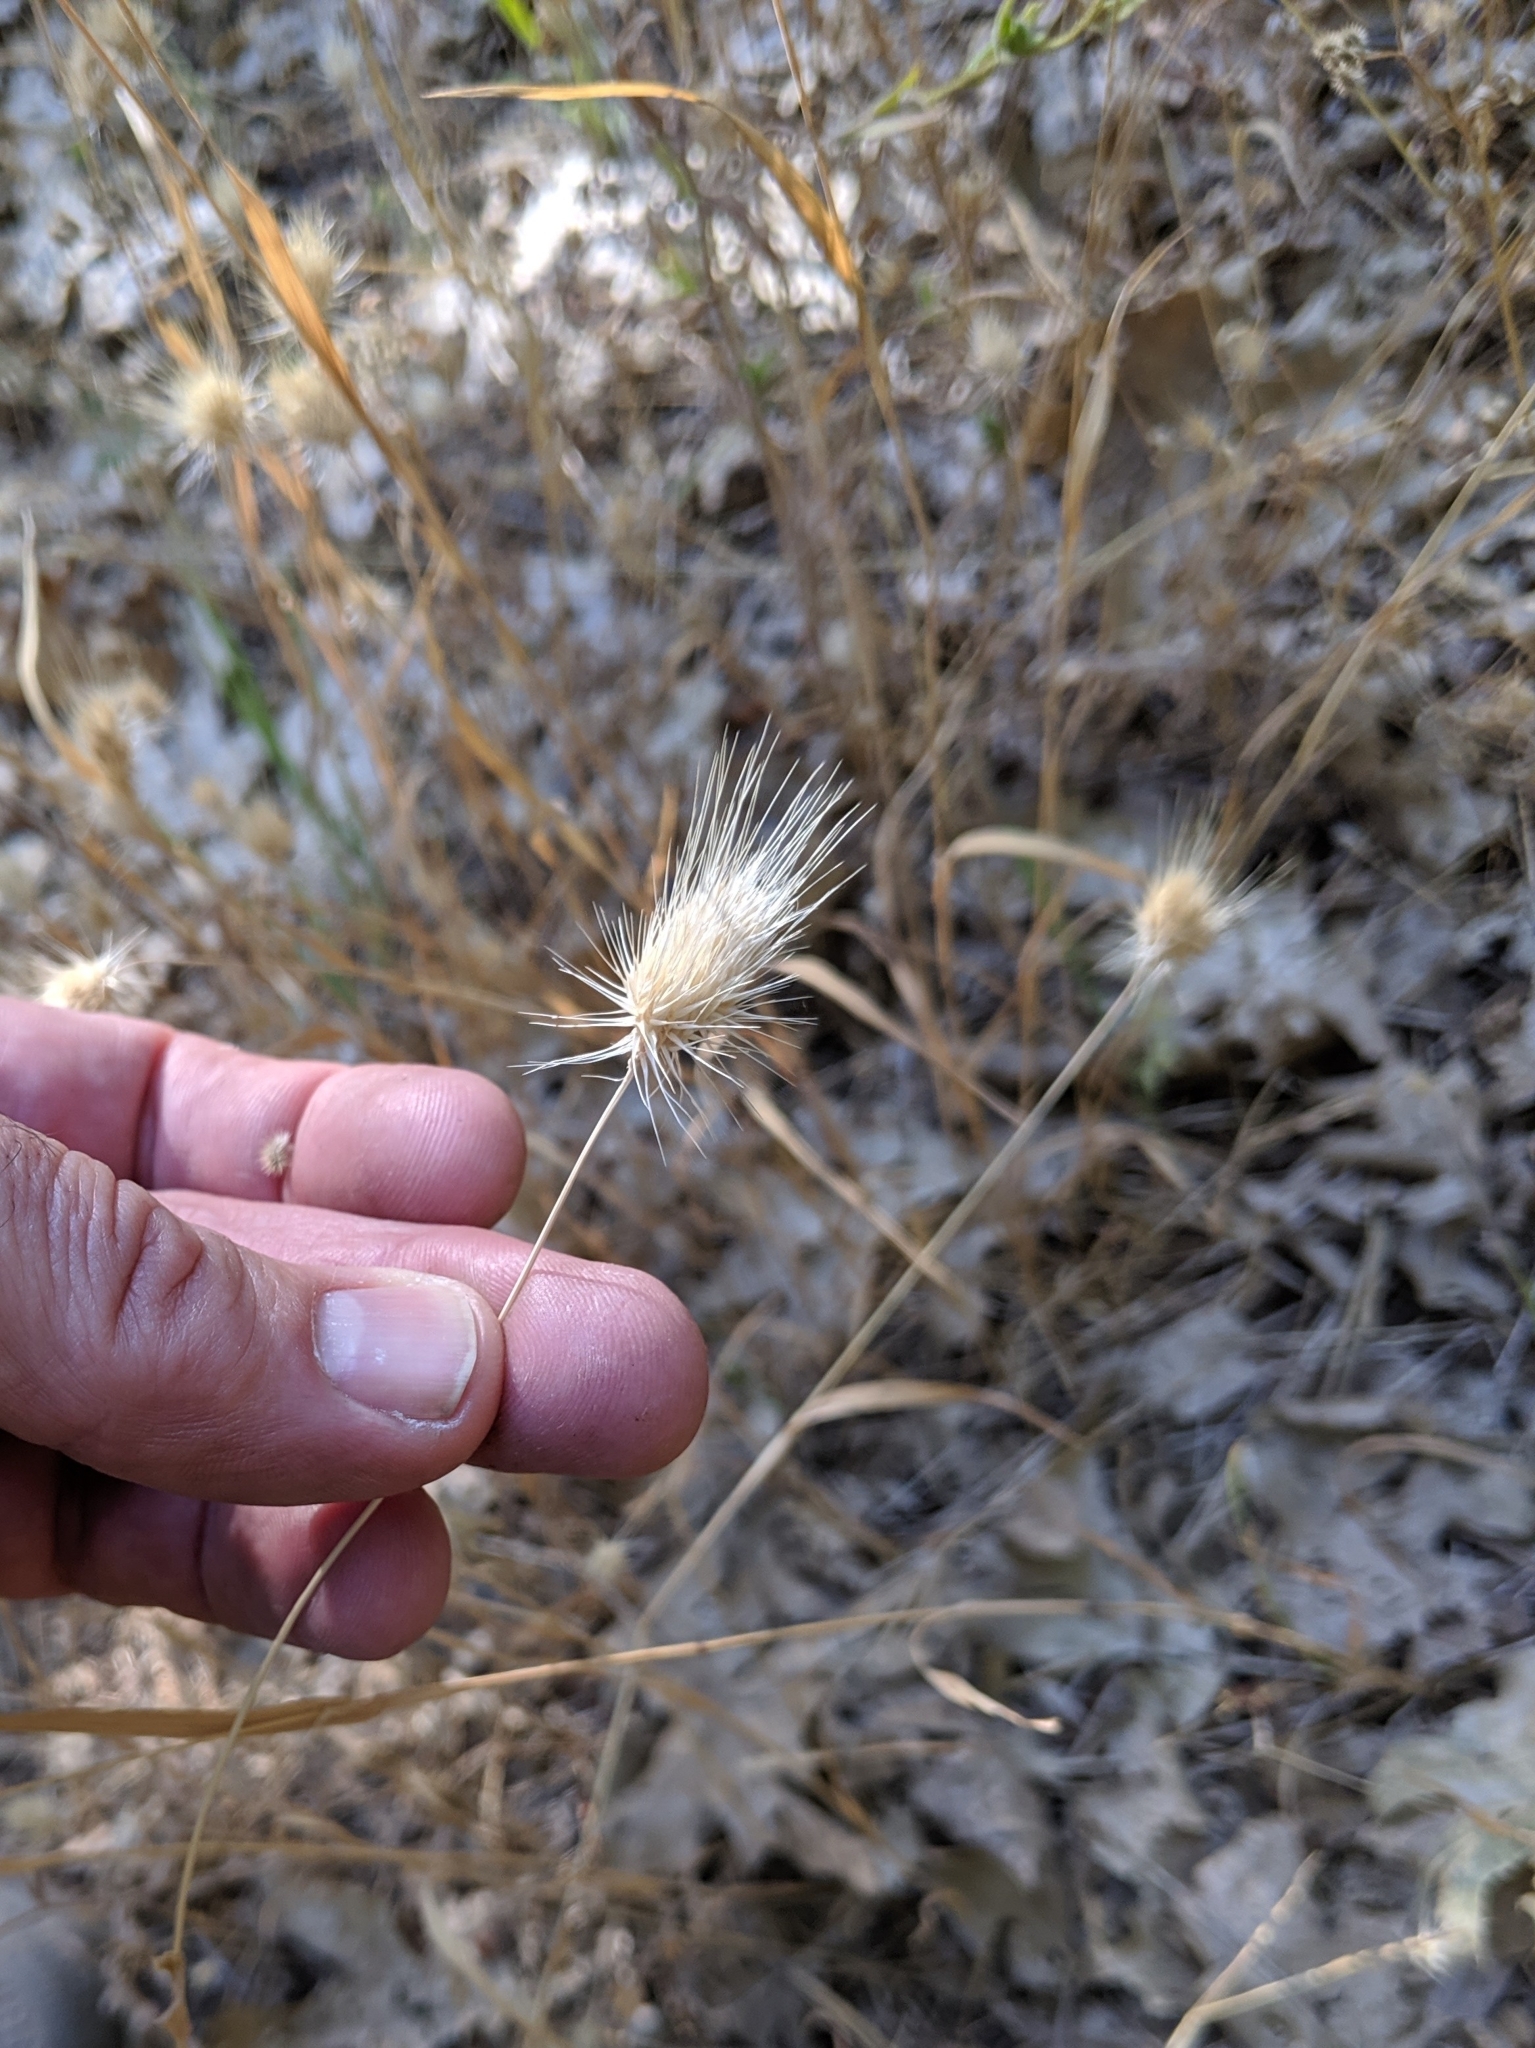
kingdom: Plantae
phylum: Tracheophyta
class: Liliopsida
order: Poales
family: Poaceae
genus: Cynosurus
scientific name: Cynosurus echinatus
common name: Rough dog's-tail
